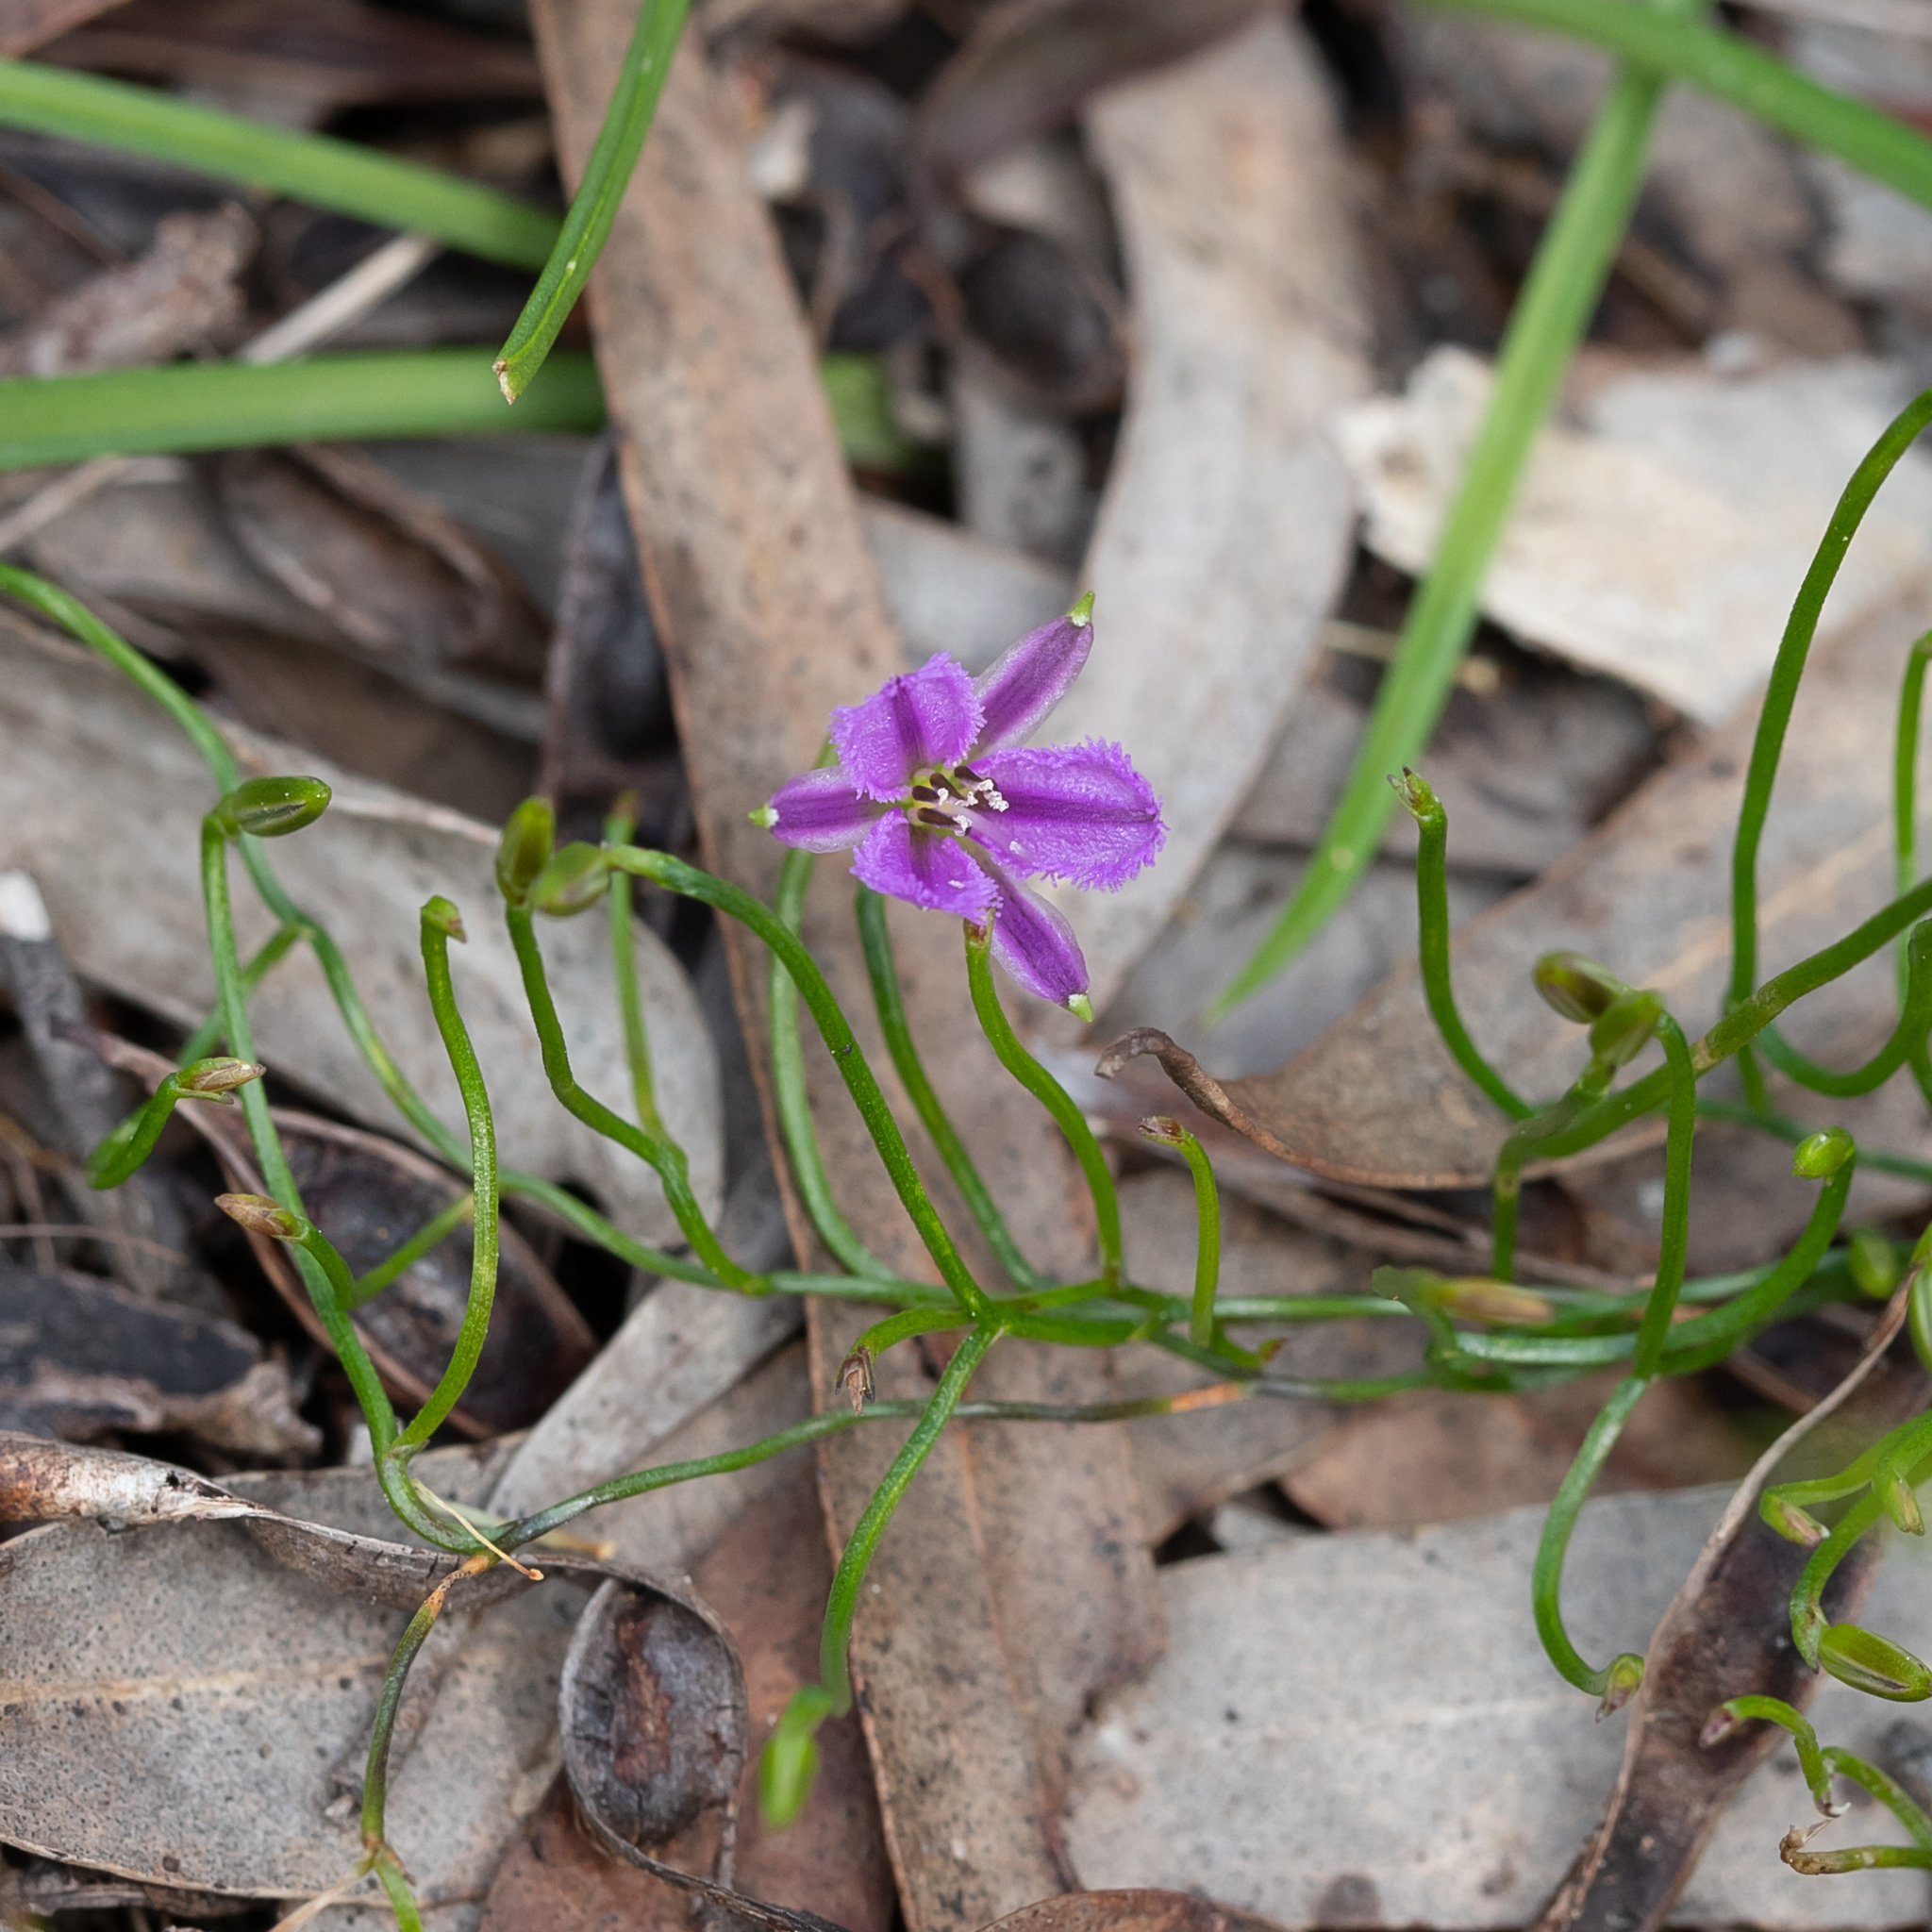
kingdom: Plantae
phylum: Tracheophyta
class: Liliopsida
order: Asparagales
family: Asparagaceae
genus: Thysanotus
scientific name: Thysanotus patersonii
